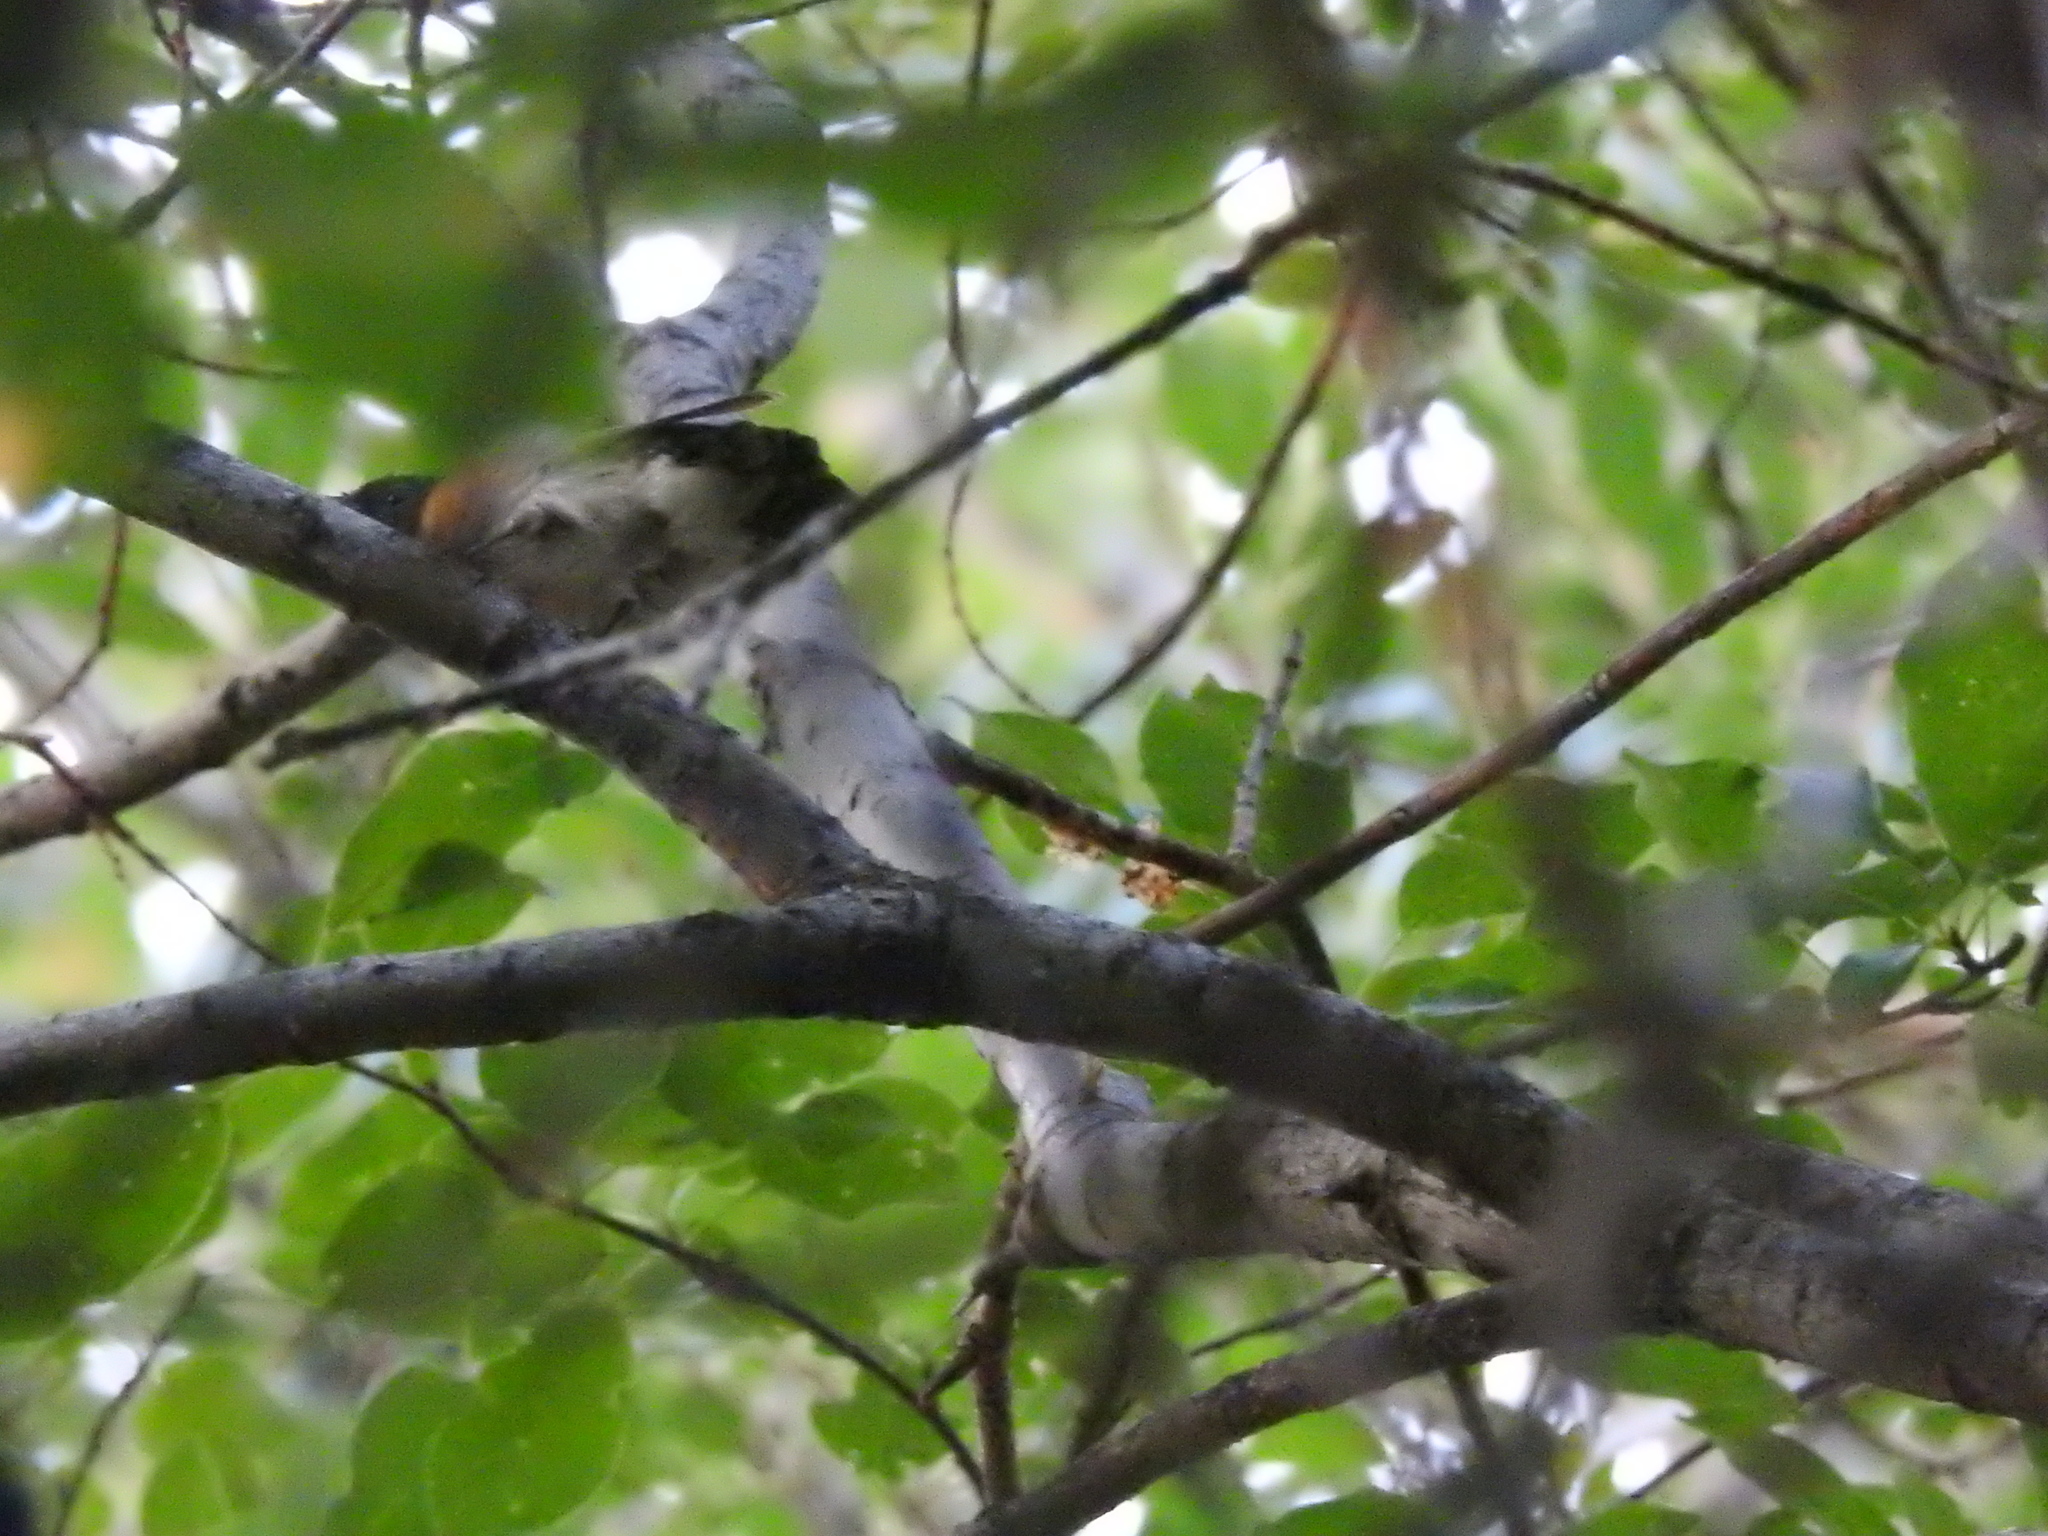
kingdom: Animalia
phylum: Chordata
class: Aves
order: Passeriformes
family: Parulidae
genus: Setophaga
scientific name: Setophaga ruticilla
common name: American redstart
